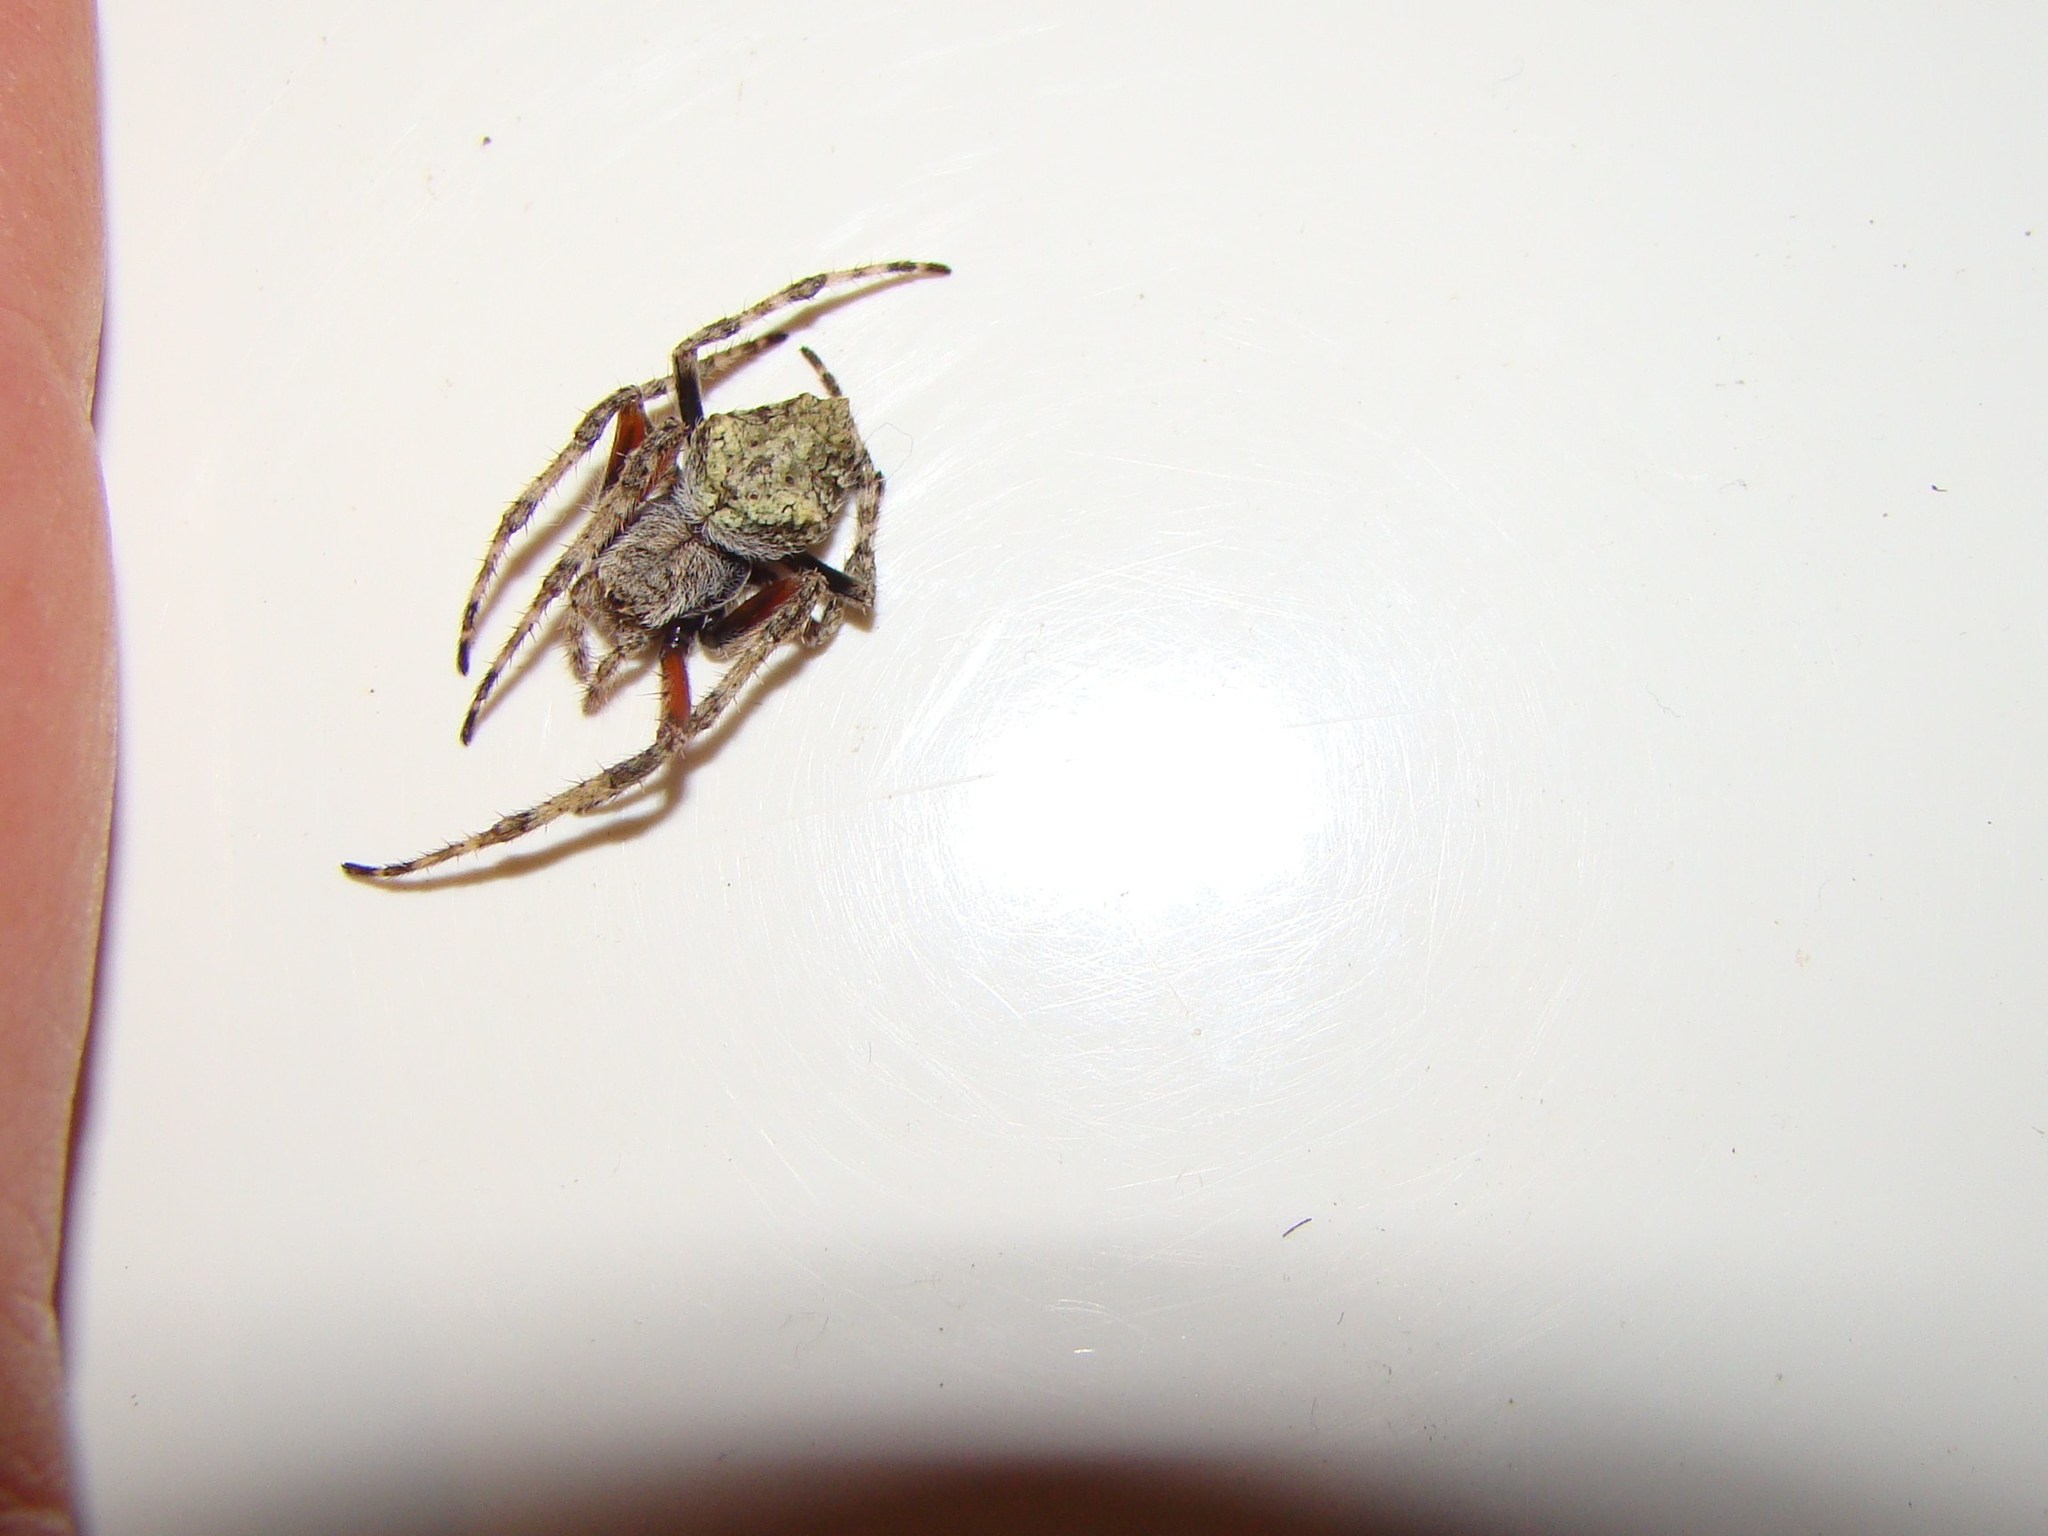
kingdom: Animalia
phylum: Arthropoda
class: Arachnida
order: Araneae
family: Araneidae
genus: Eriophora
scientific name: Eriophora pustulosa
